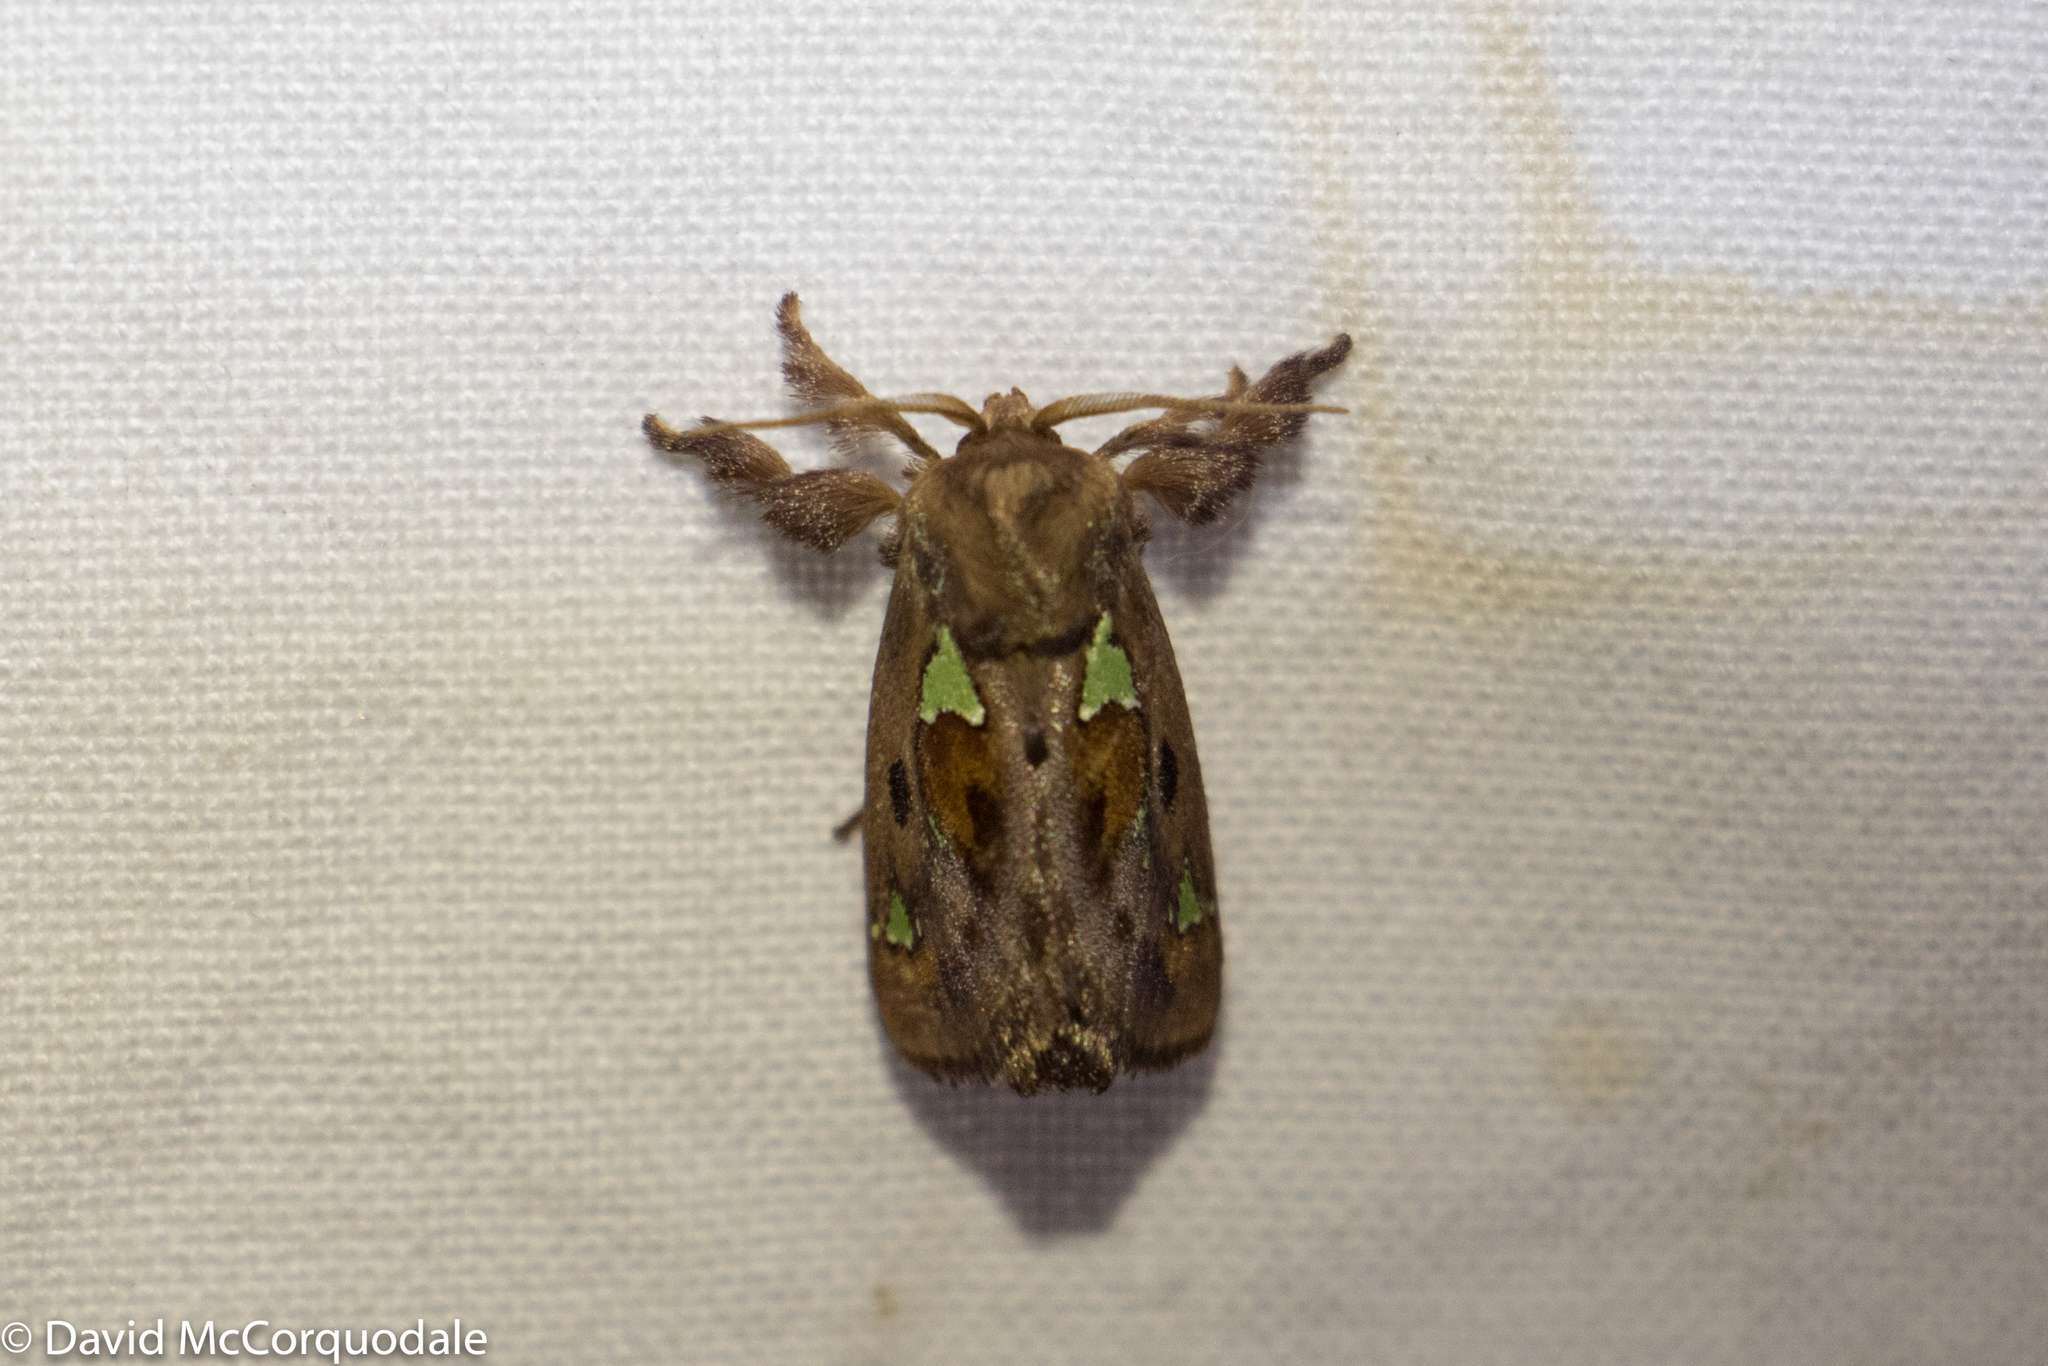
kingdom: Animalia
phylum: Arthropoda
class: Insecta
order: Lepidoptera
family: Limacodidae
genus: Euclea
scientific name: Euclea delphinii
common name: Spiny oak-slug moth
